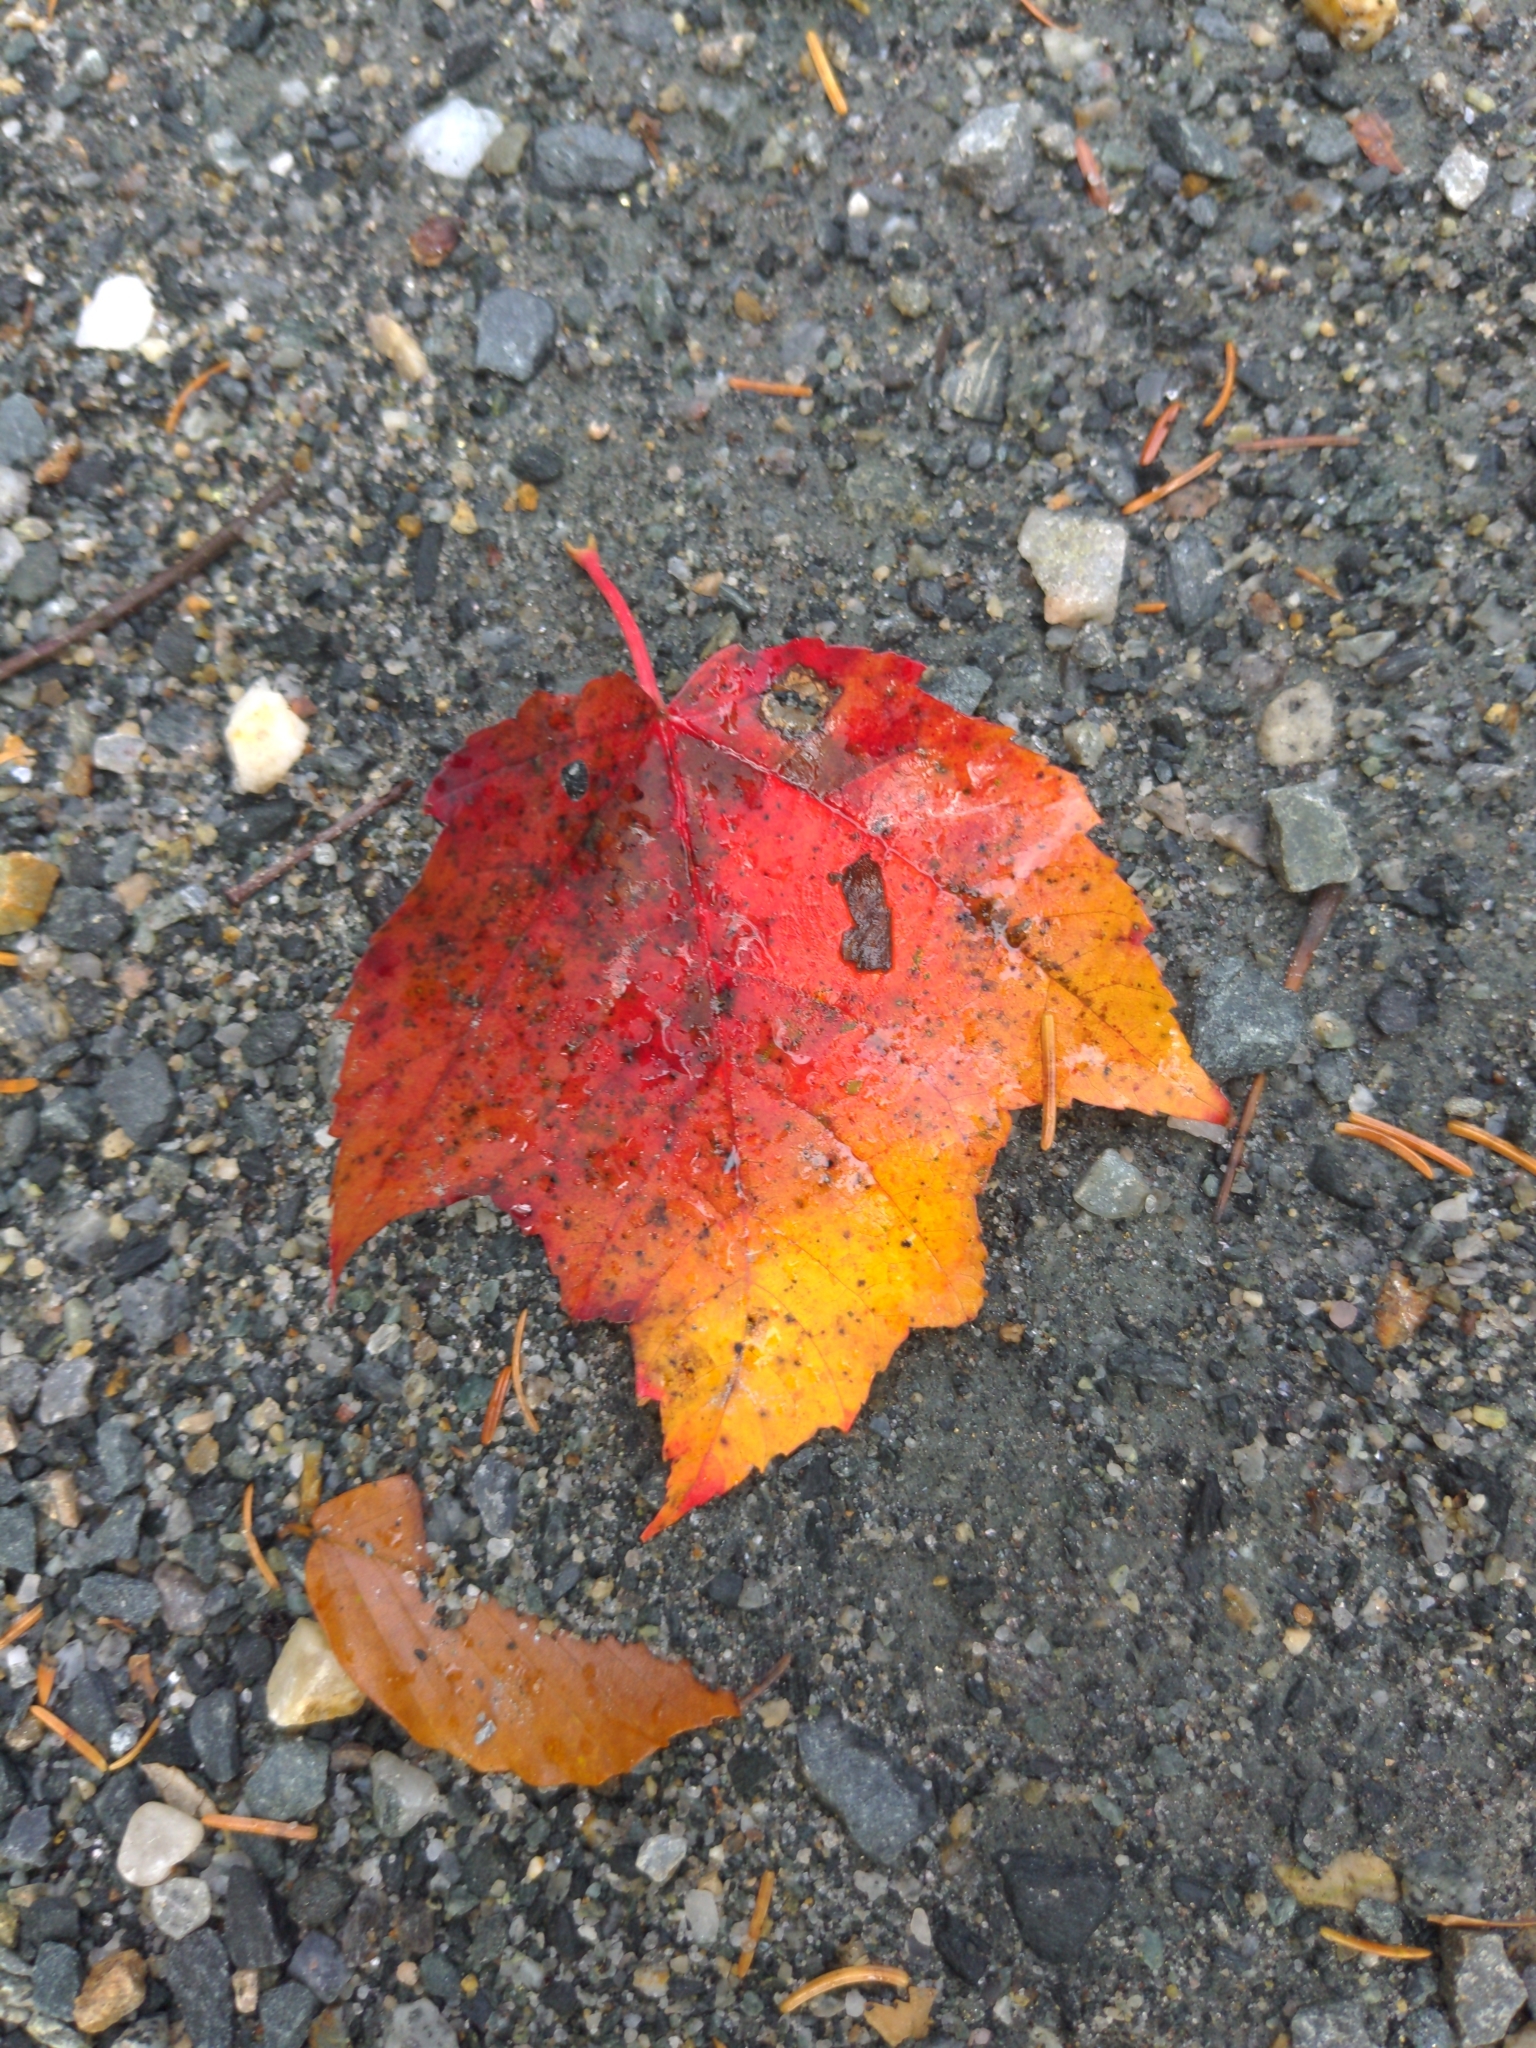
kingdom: Plantae
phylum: Tracheophyta
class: Magnoliopsida
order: Sapindales
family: Sapindaceae
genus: Acer
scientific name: Acer rubrum
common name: Red maple
